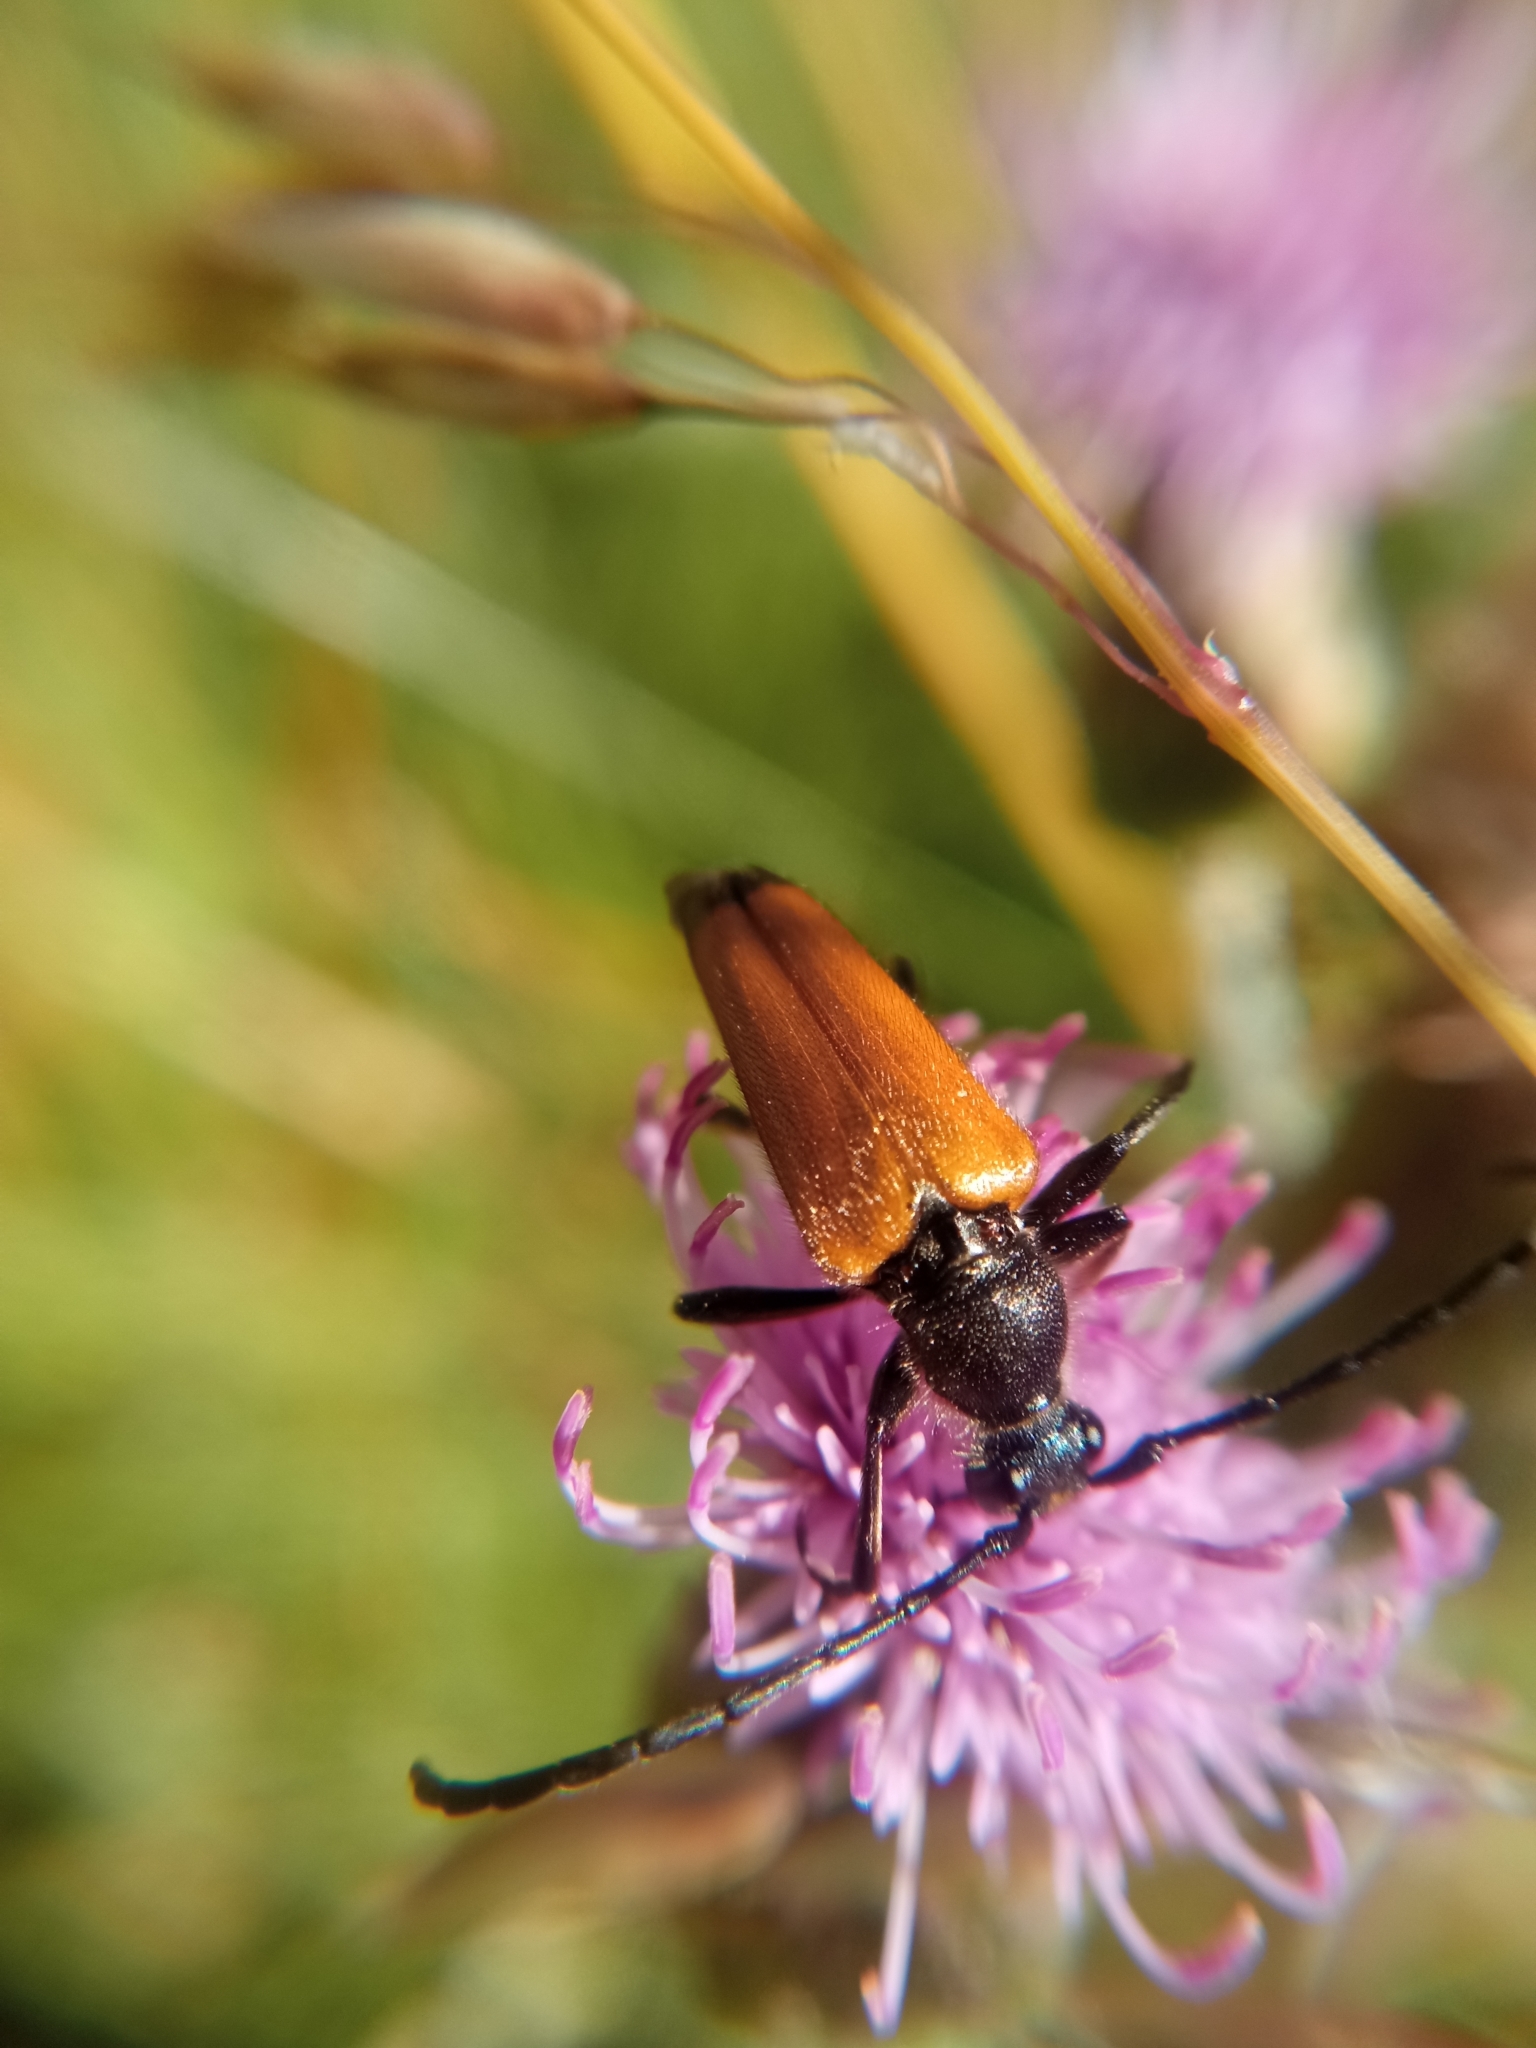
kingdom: Animalia
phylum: Arthropoda
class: Insecta
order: Coleoptera
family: Cerambycidae
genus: Paracorymbia
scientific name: Paracorymbia fulva
